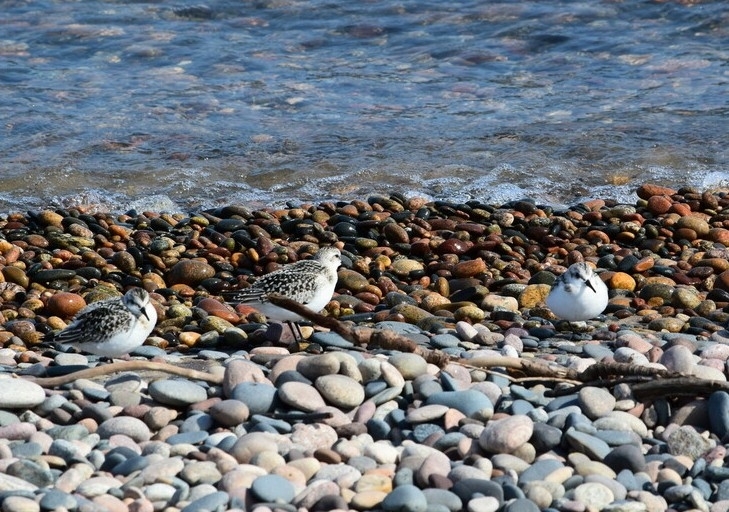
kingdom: Animalia
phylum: Chordata
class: Aves
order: Charadriiformes
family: Scolopacidae
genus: Calidris
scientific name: Calidris alba
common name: Sanderling
